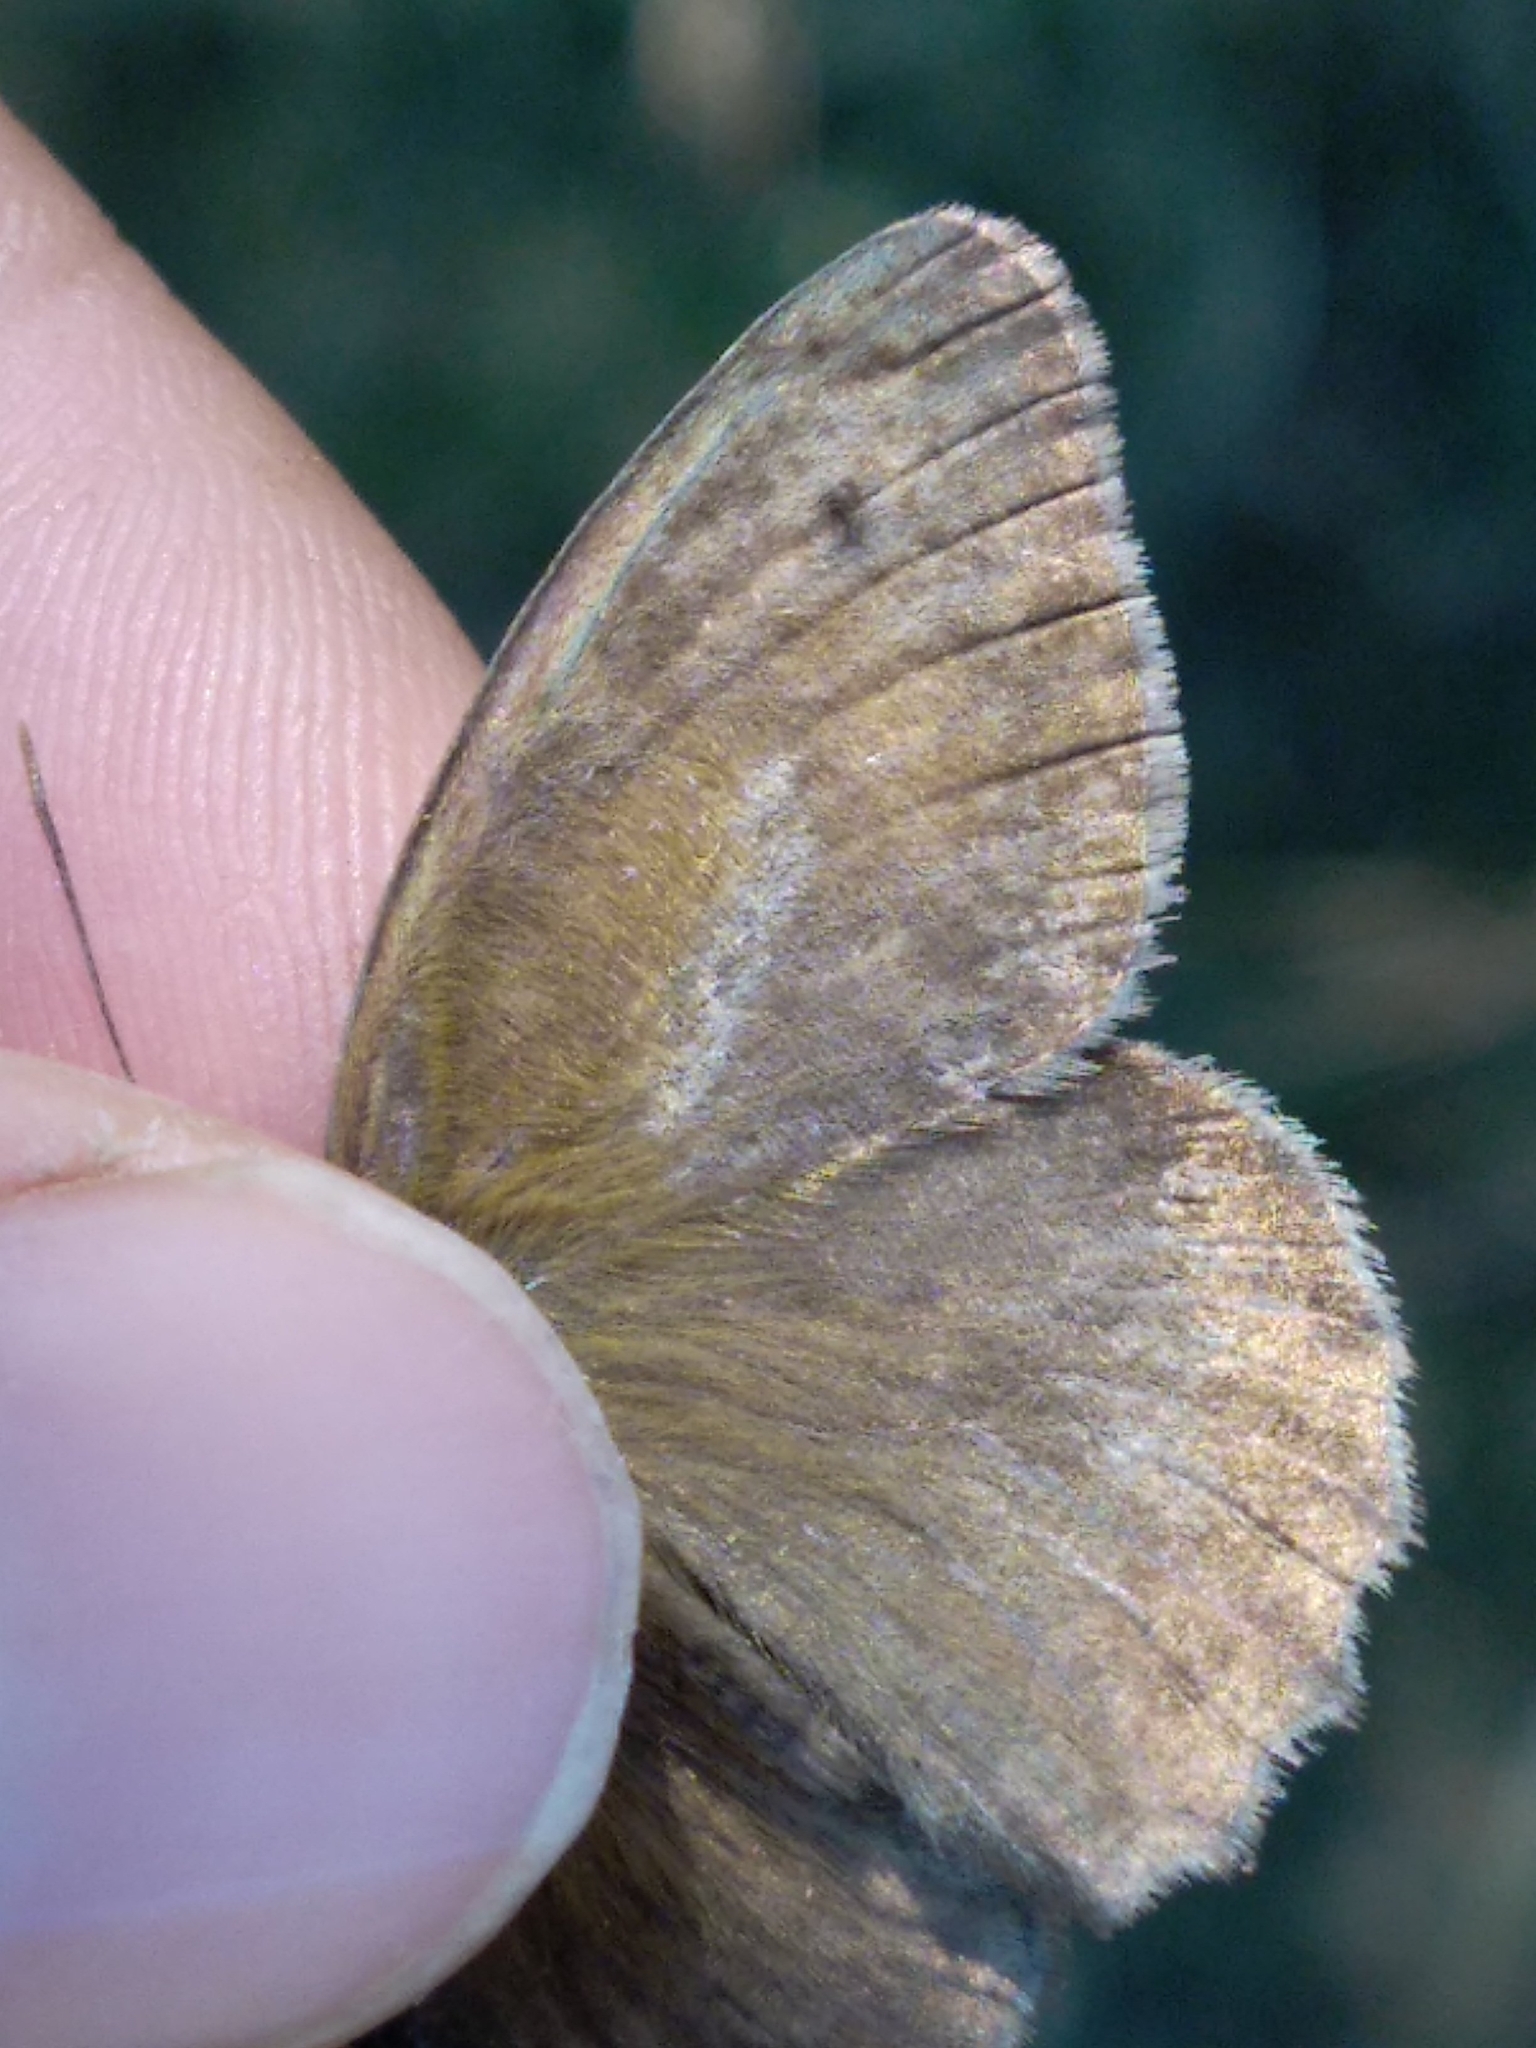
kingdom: Animalia
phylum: Arthropoda
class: Insecta
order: Lepidoptera
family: Nymphalidae
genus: Hyponephele
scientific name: Hyponephele lycaon
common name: Dusky meadow brown
